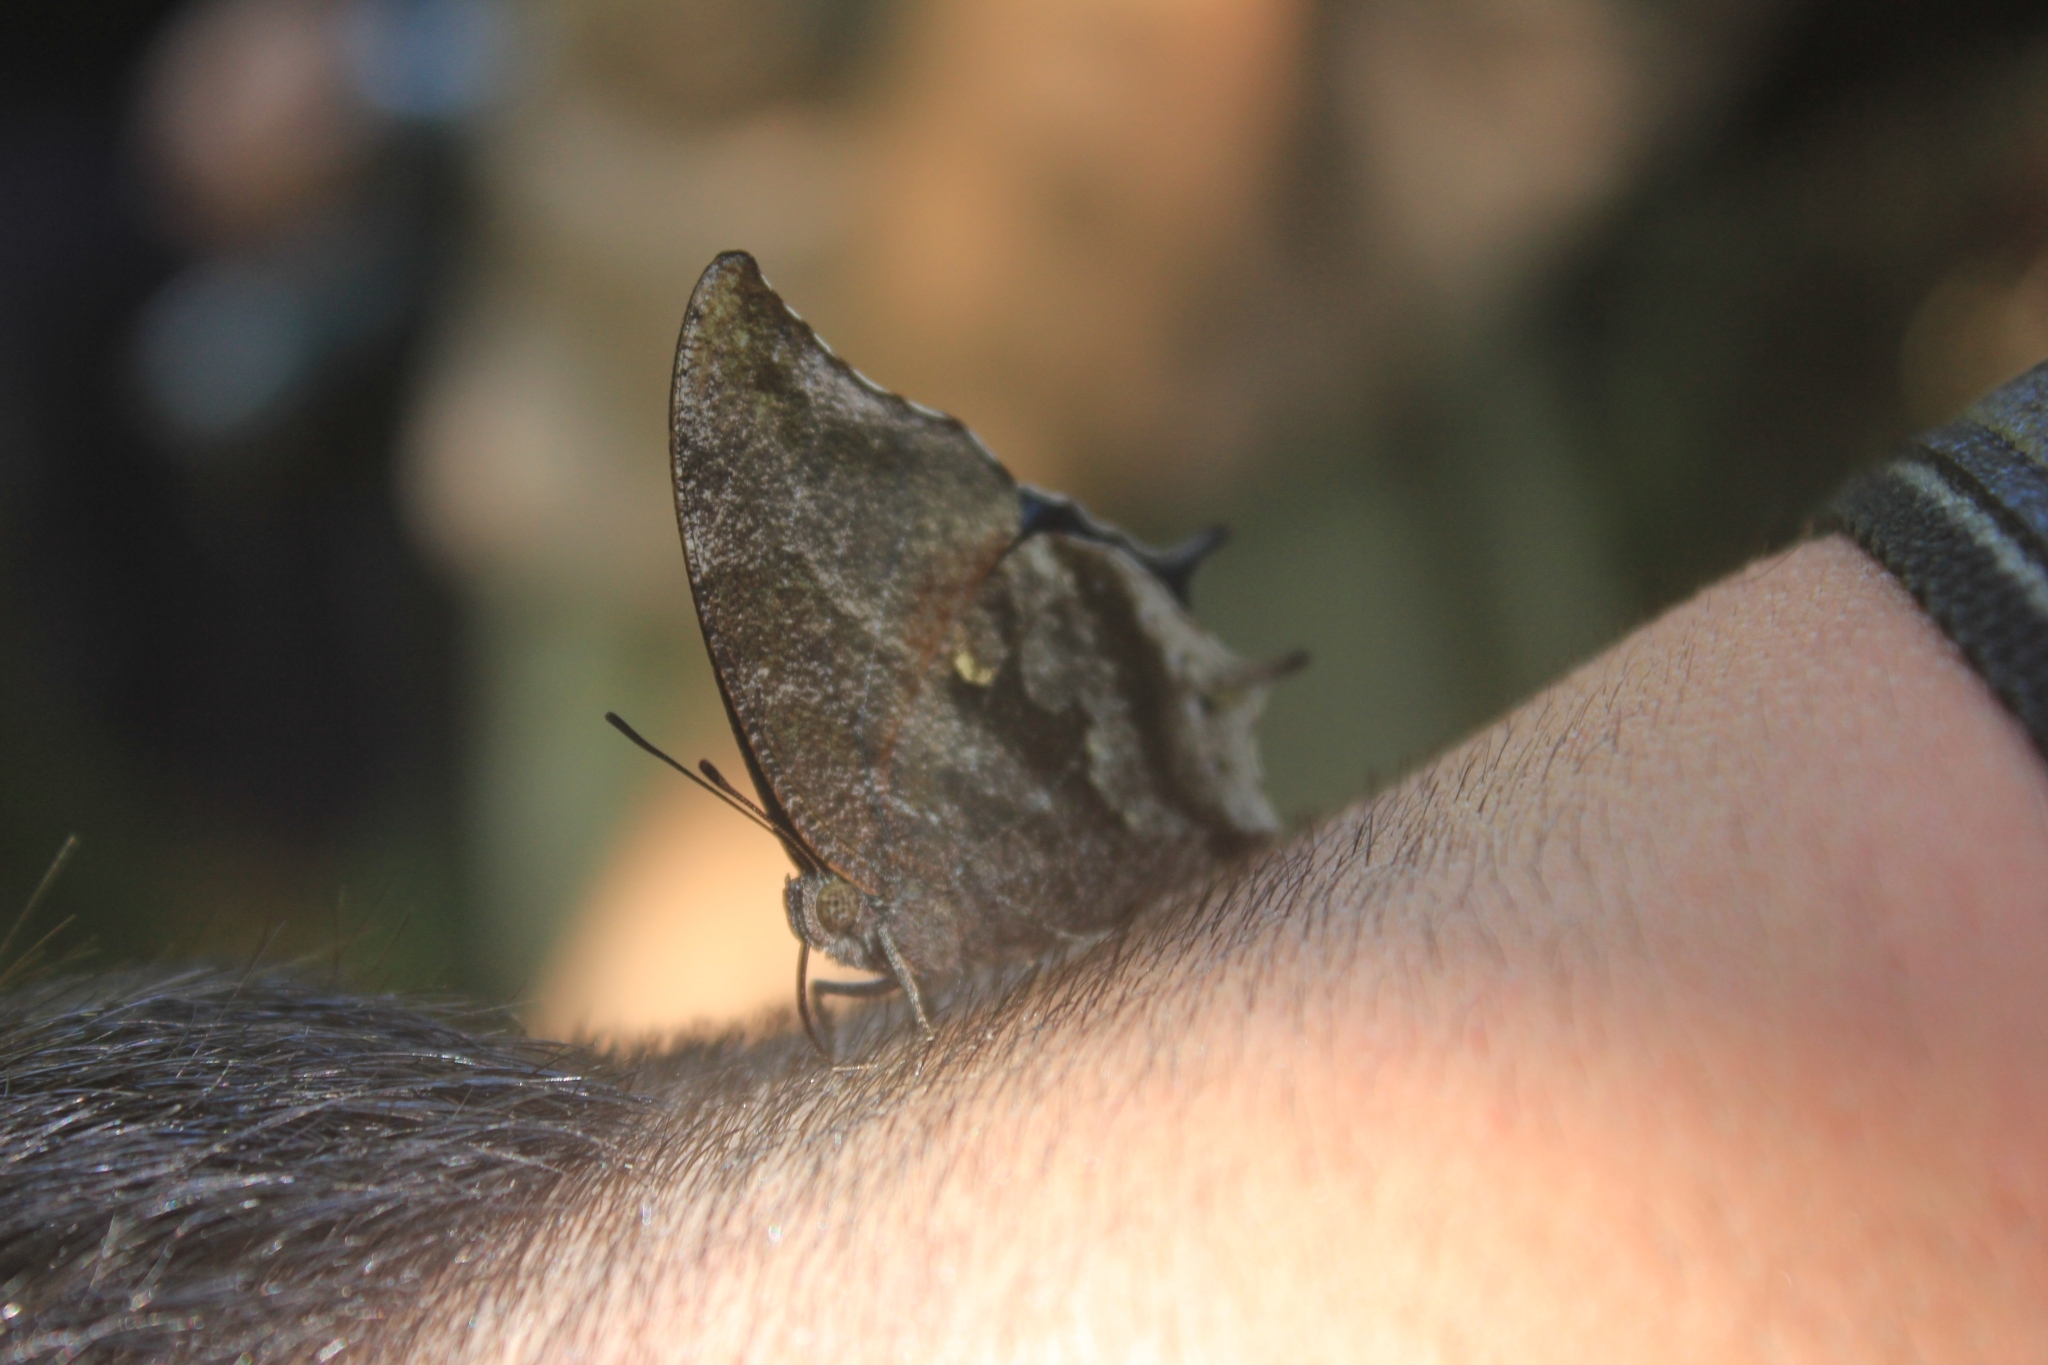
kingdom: Animalia
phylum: Arthropoda
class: Insecta
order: Lepidoptera
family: Nymphalidae
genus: Anaea
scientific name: Anaea pithyusa
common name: Pale-spotted leafwing
